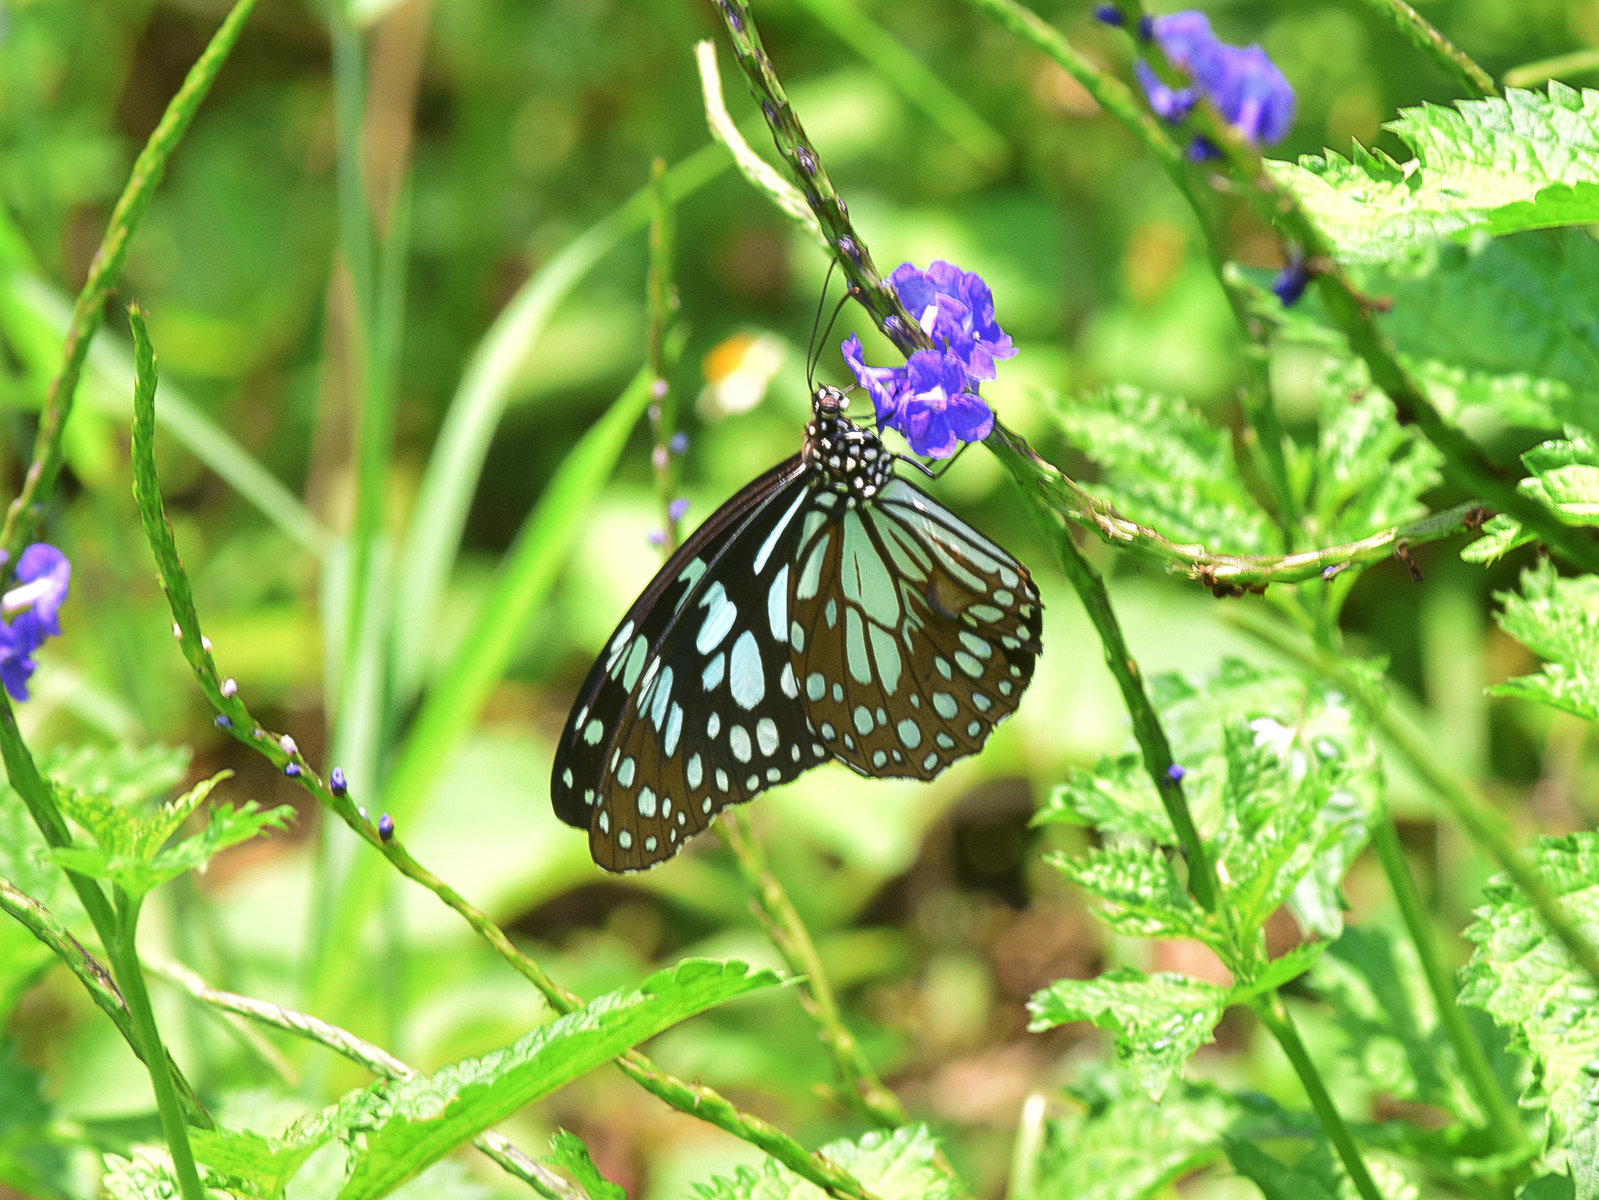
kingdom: Animalia
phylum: Arthropoda
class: Insecta
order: Lepidoptera
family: Nymphalidae
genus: Tirumala
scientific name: Tirumala limniace
